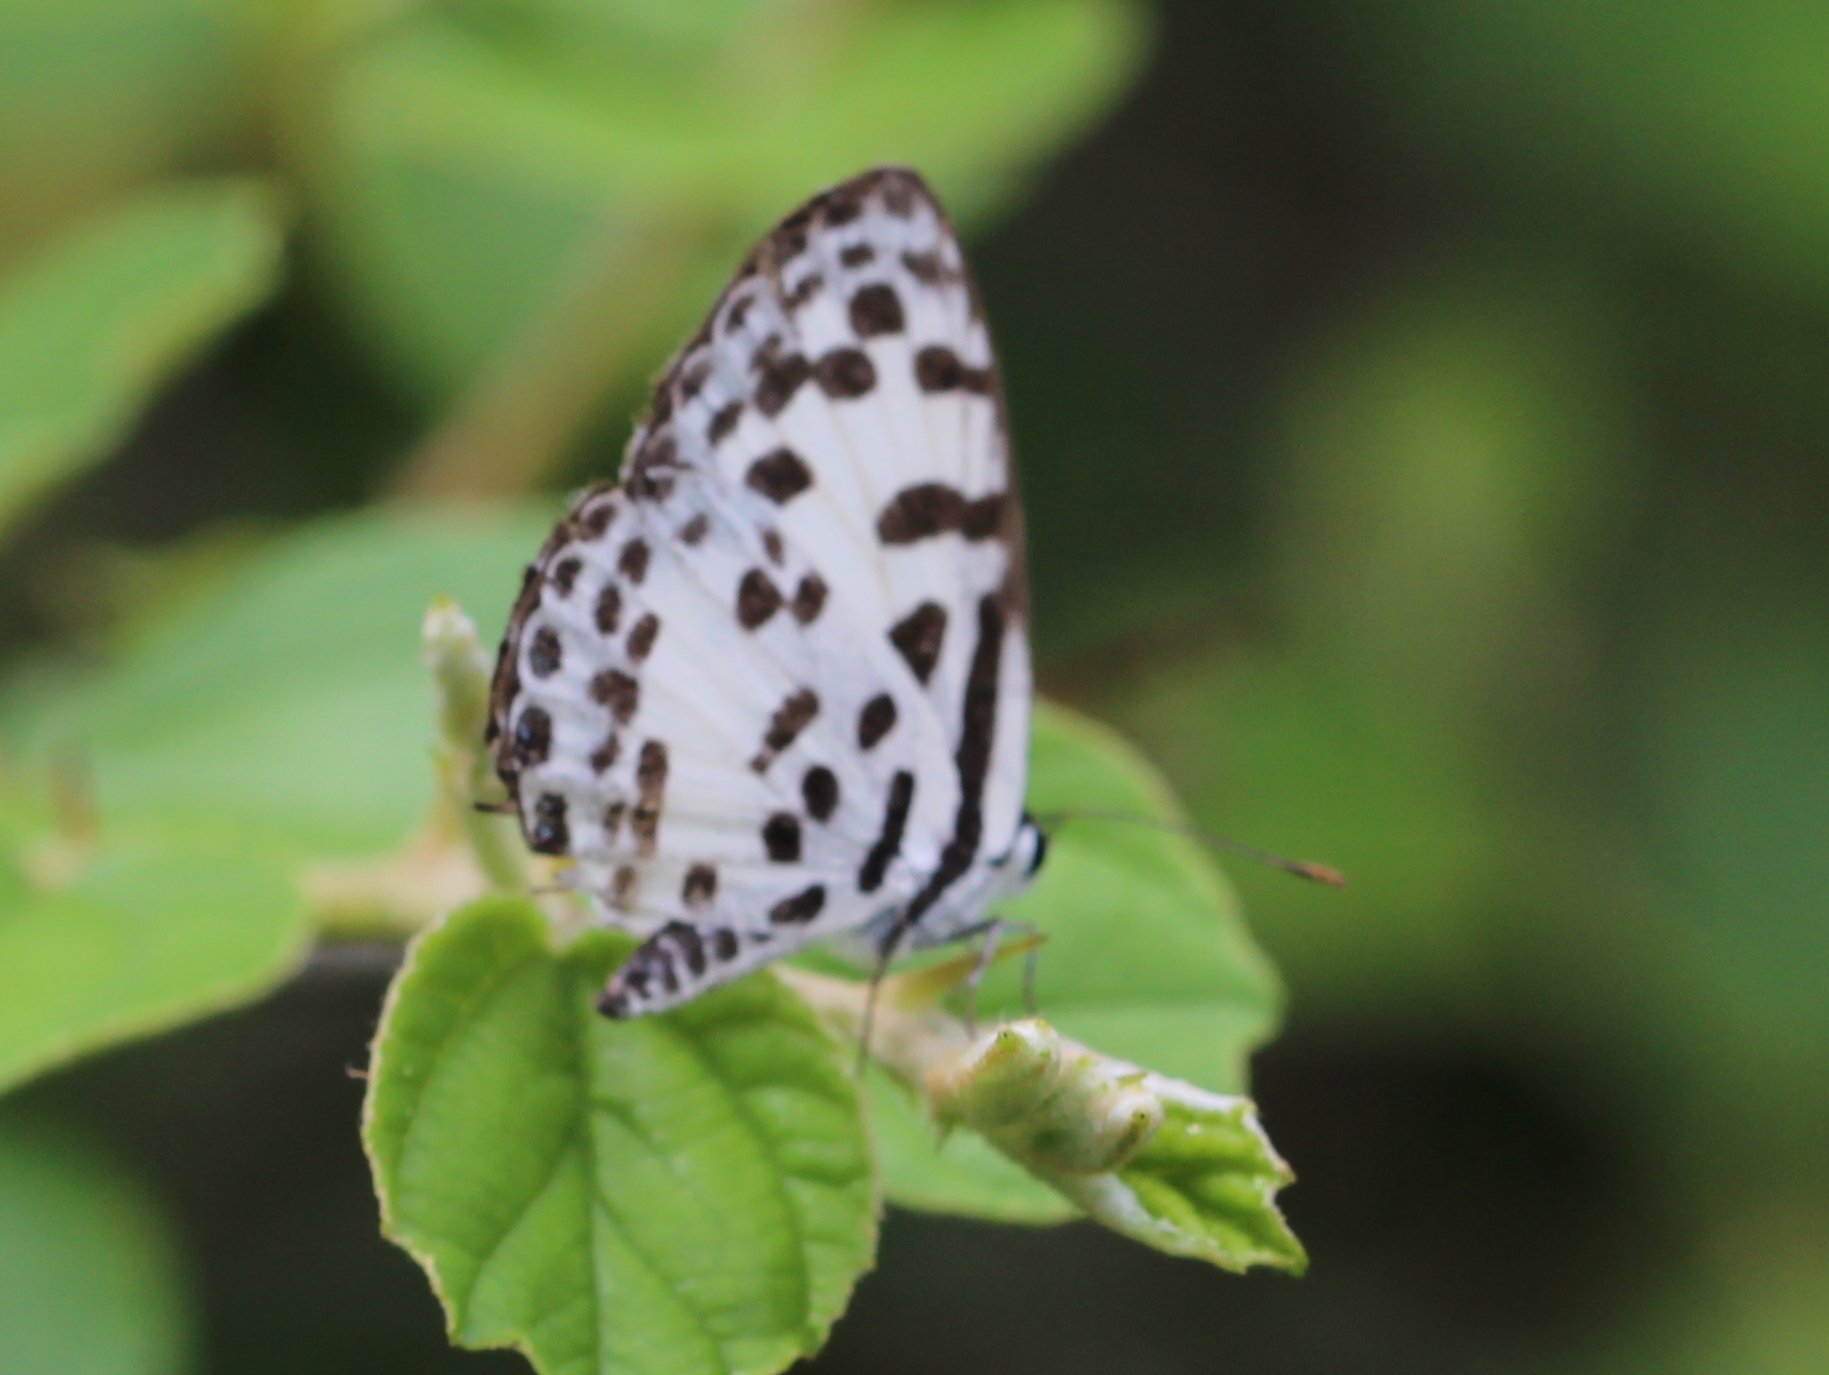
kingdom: Animalia
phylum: Arthropoda
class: Insecta
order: Lepidoptera
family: Lycaenidae
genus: Castalius
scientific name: Castalius rosimon
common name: Common pierrot
